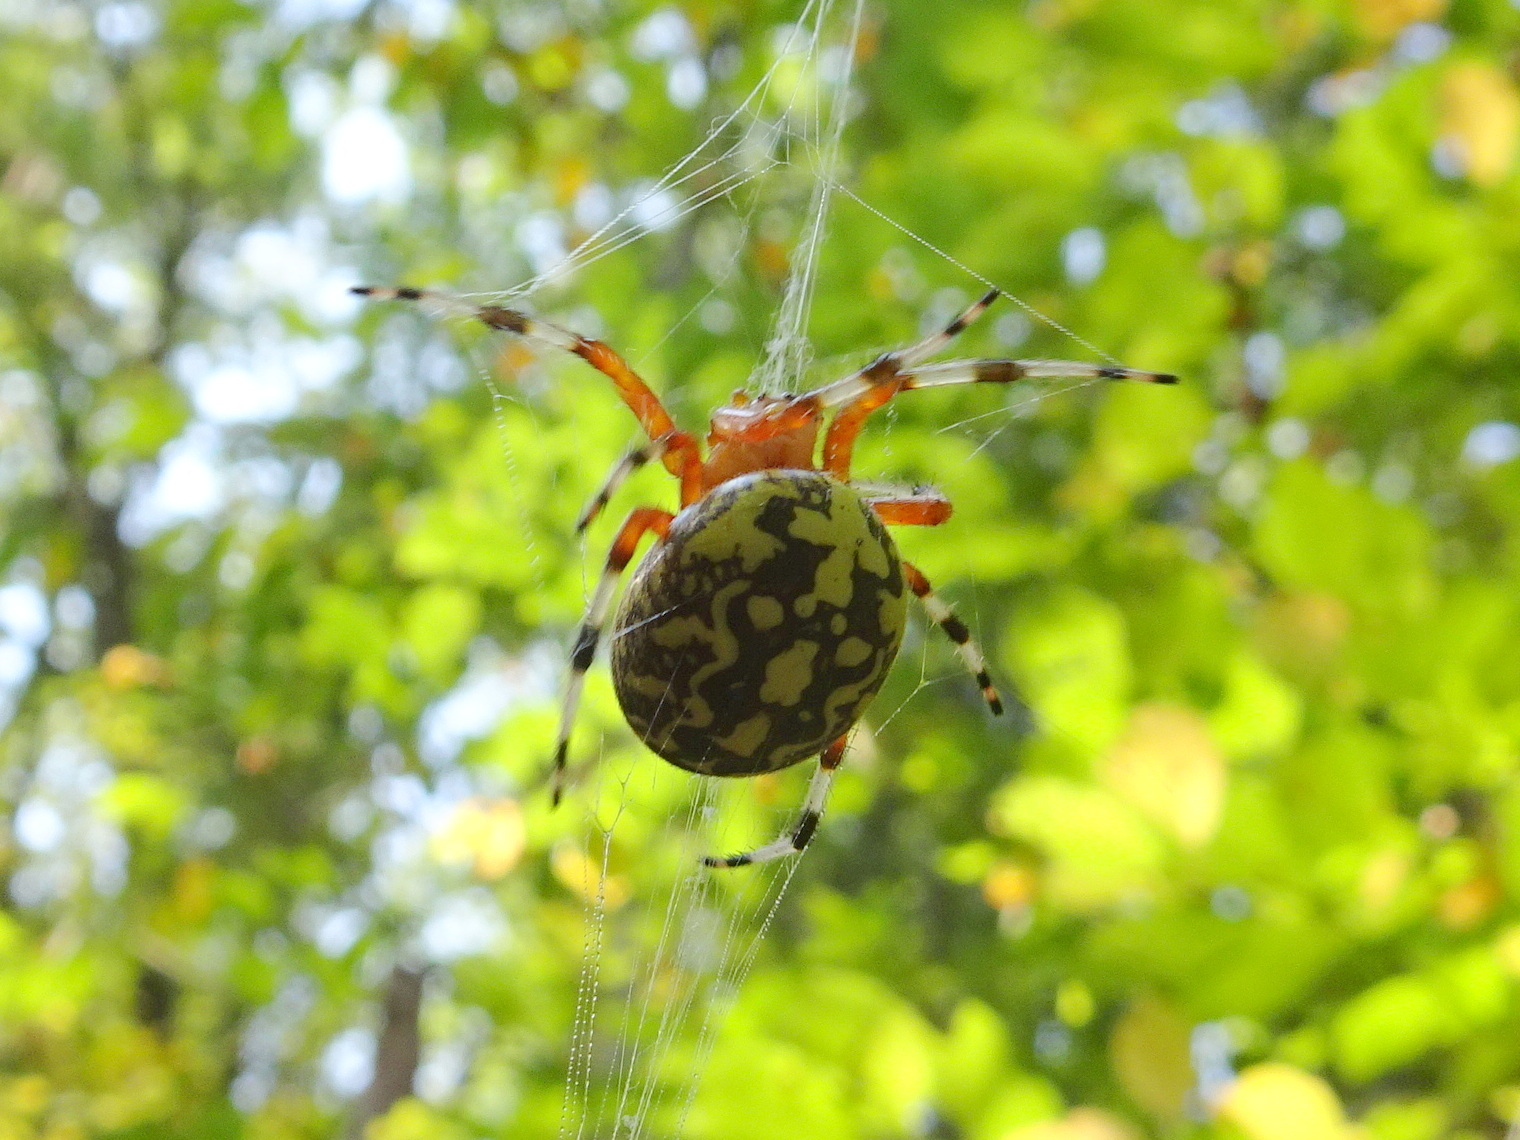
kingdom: Animalia
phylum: Arthropoda
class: Arachnida
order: Araneae
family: Araneidae
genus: Araneus
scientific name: Araneus marmoreus
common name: Marbled orbweaver
